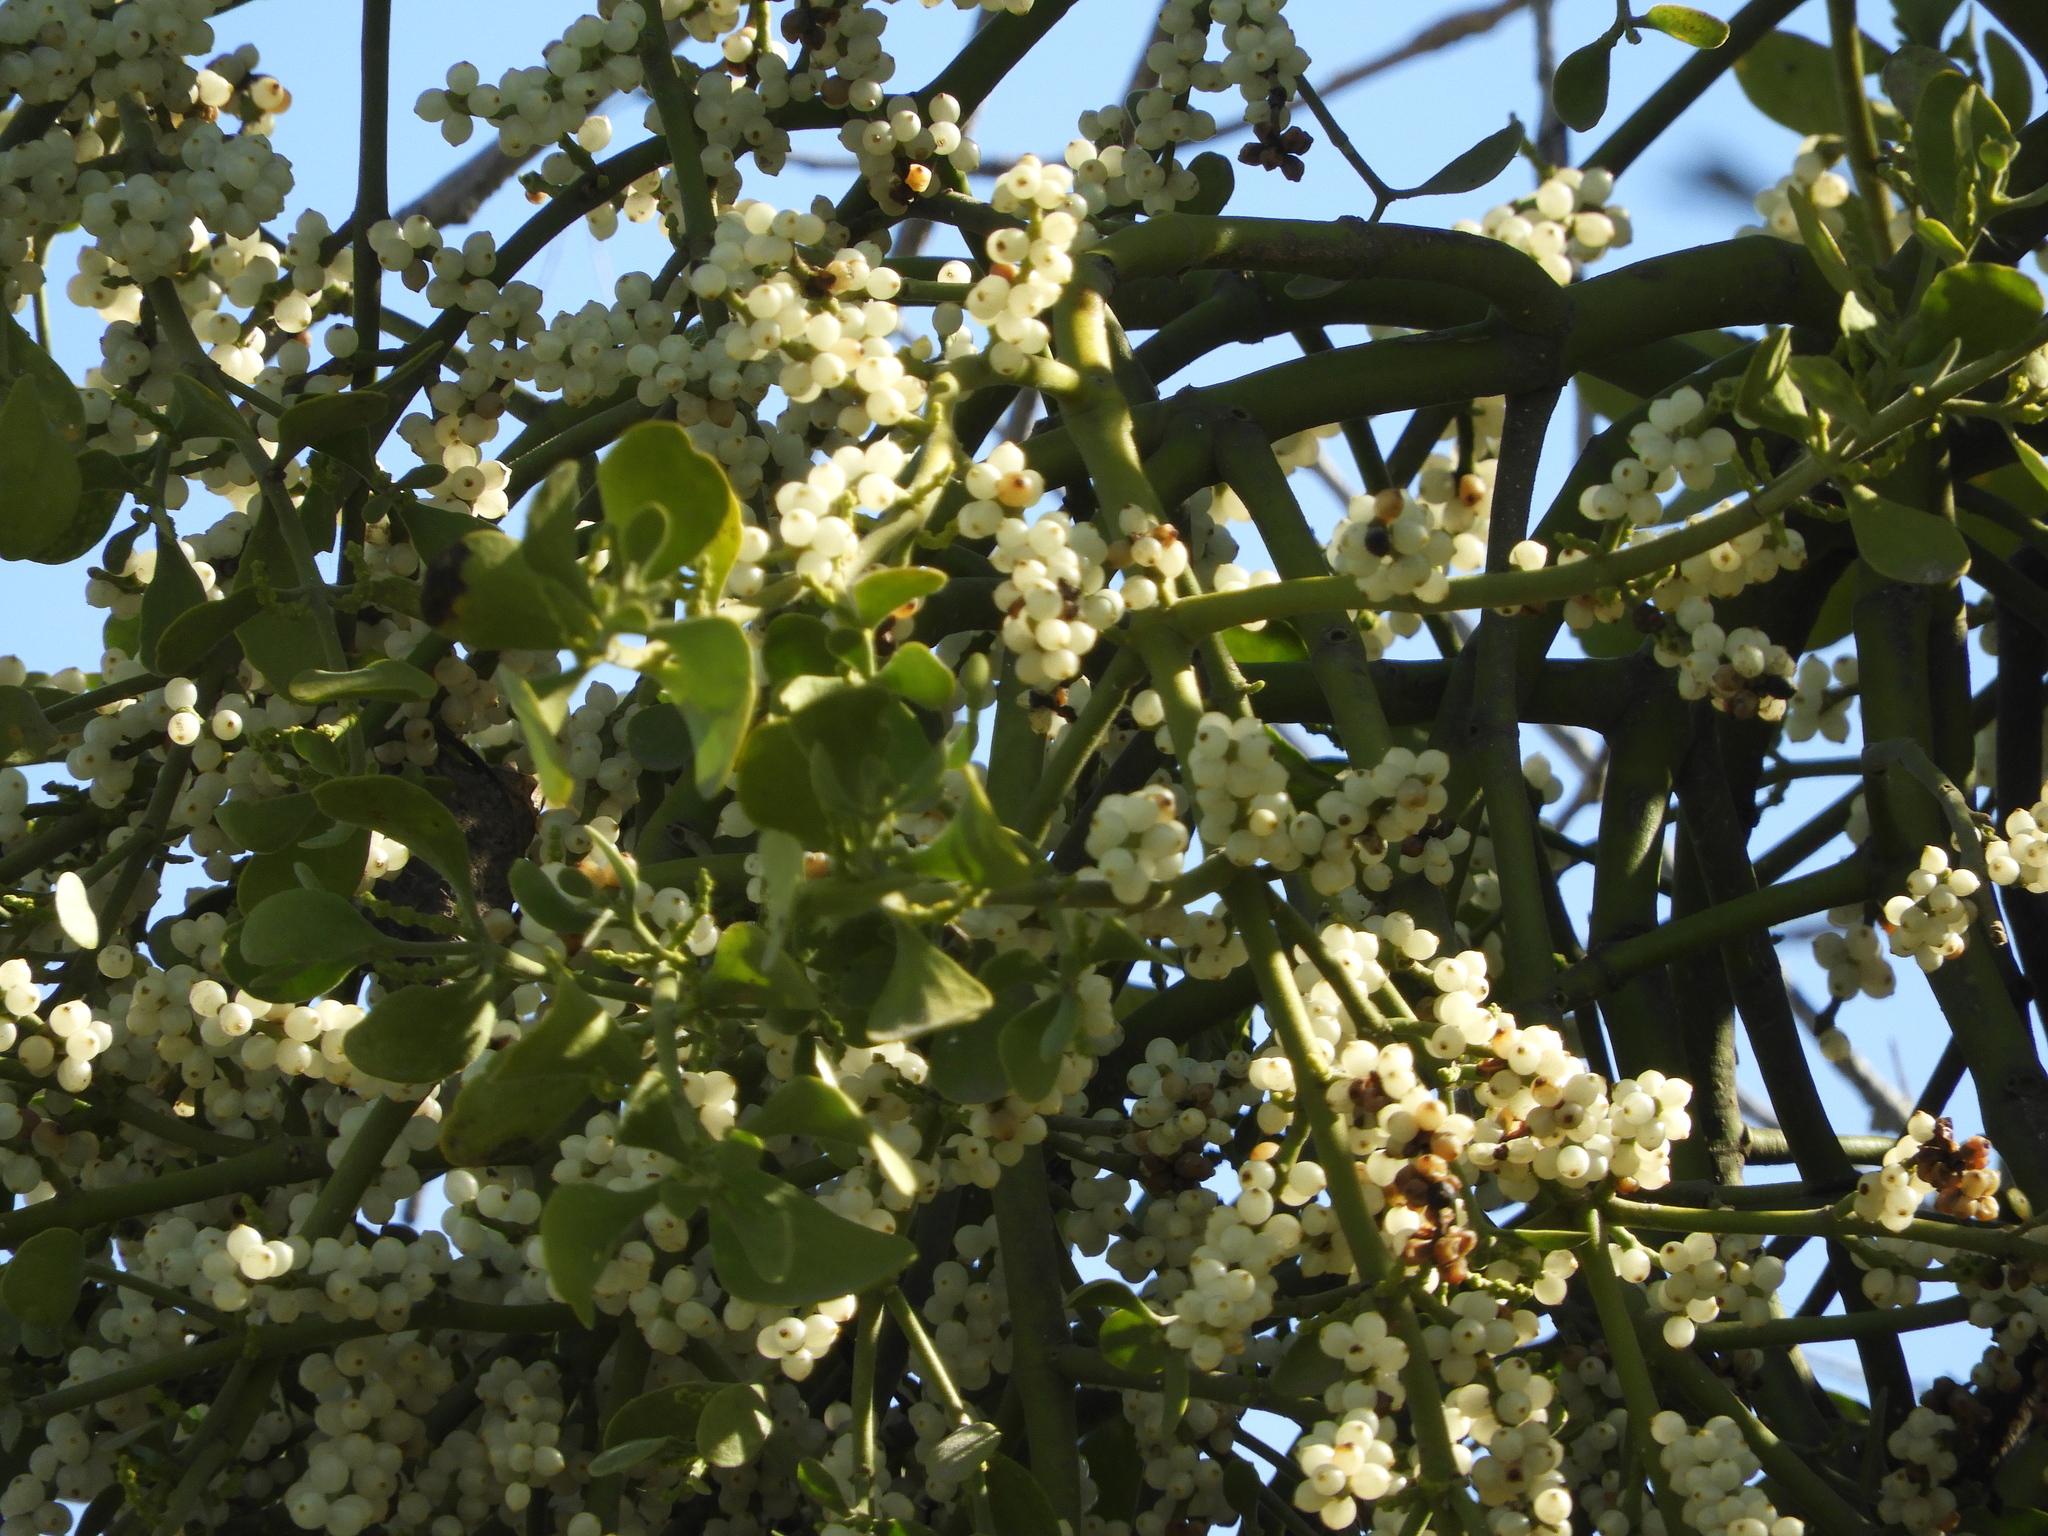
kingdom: Plantae
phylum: Tracheophyta
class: Magnoliopsida
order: Santalales
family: Viscaceae
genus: Phoradendron
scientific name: Phoradendron
